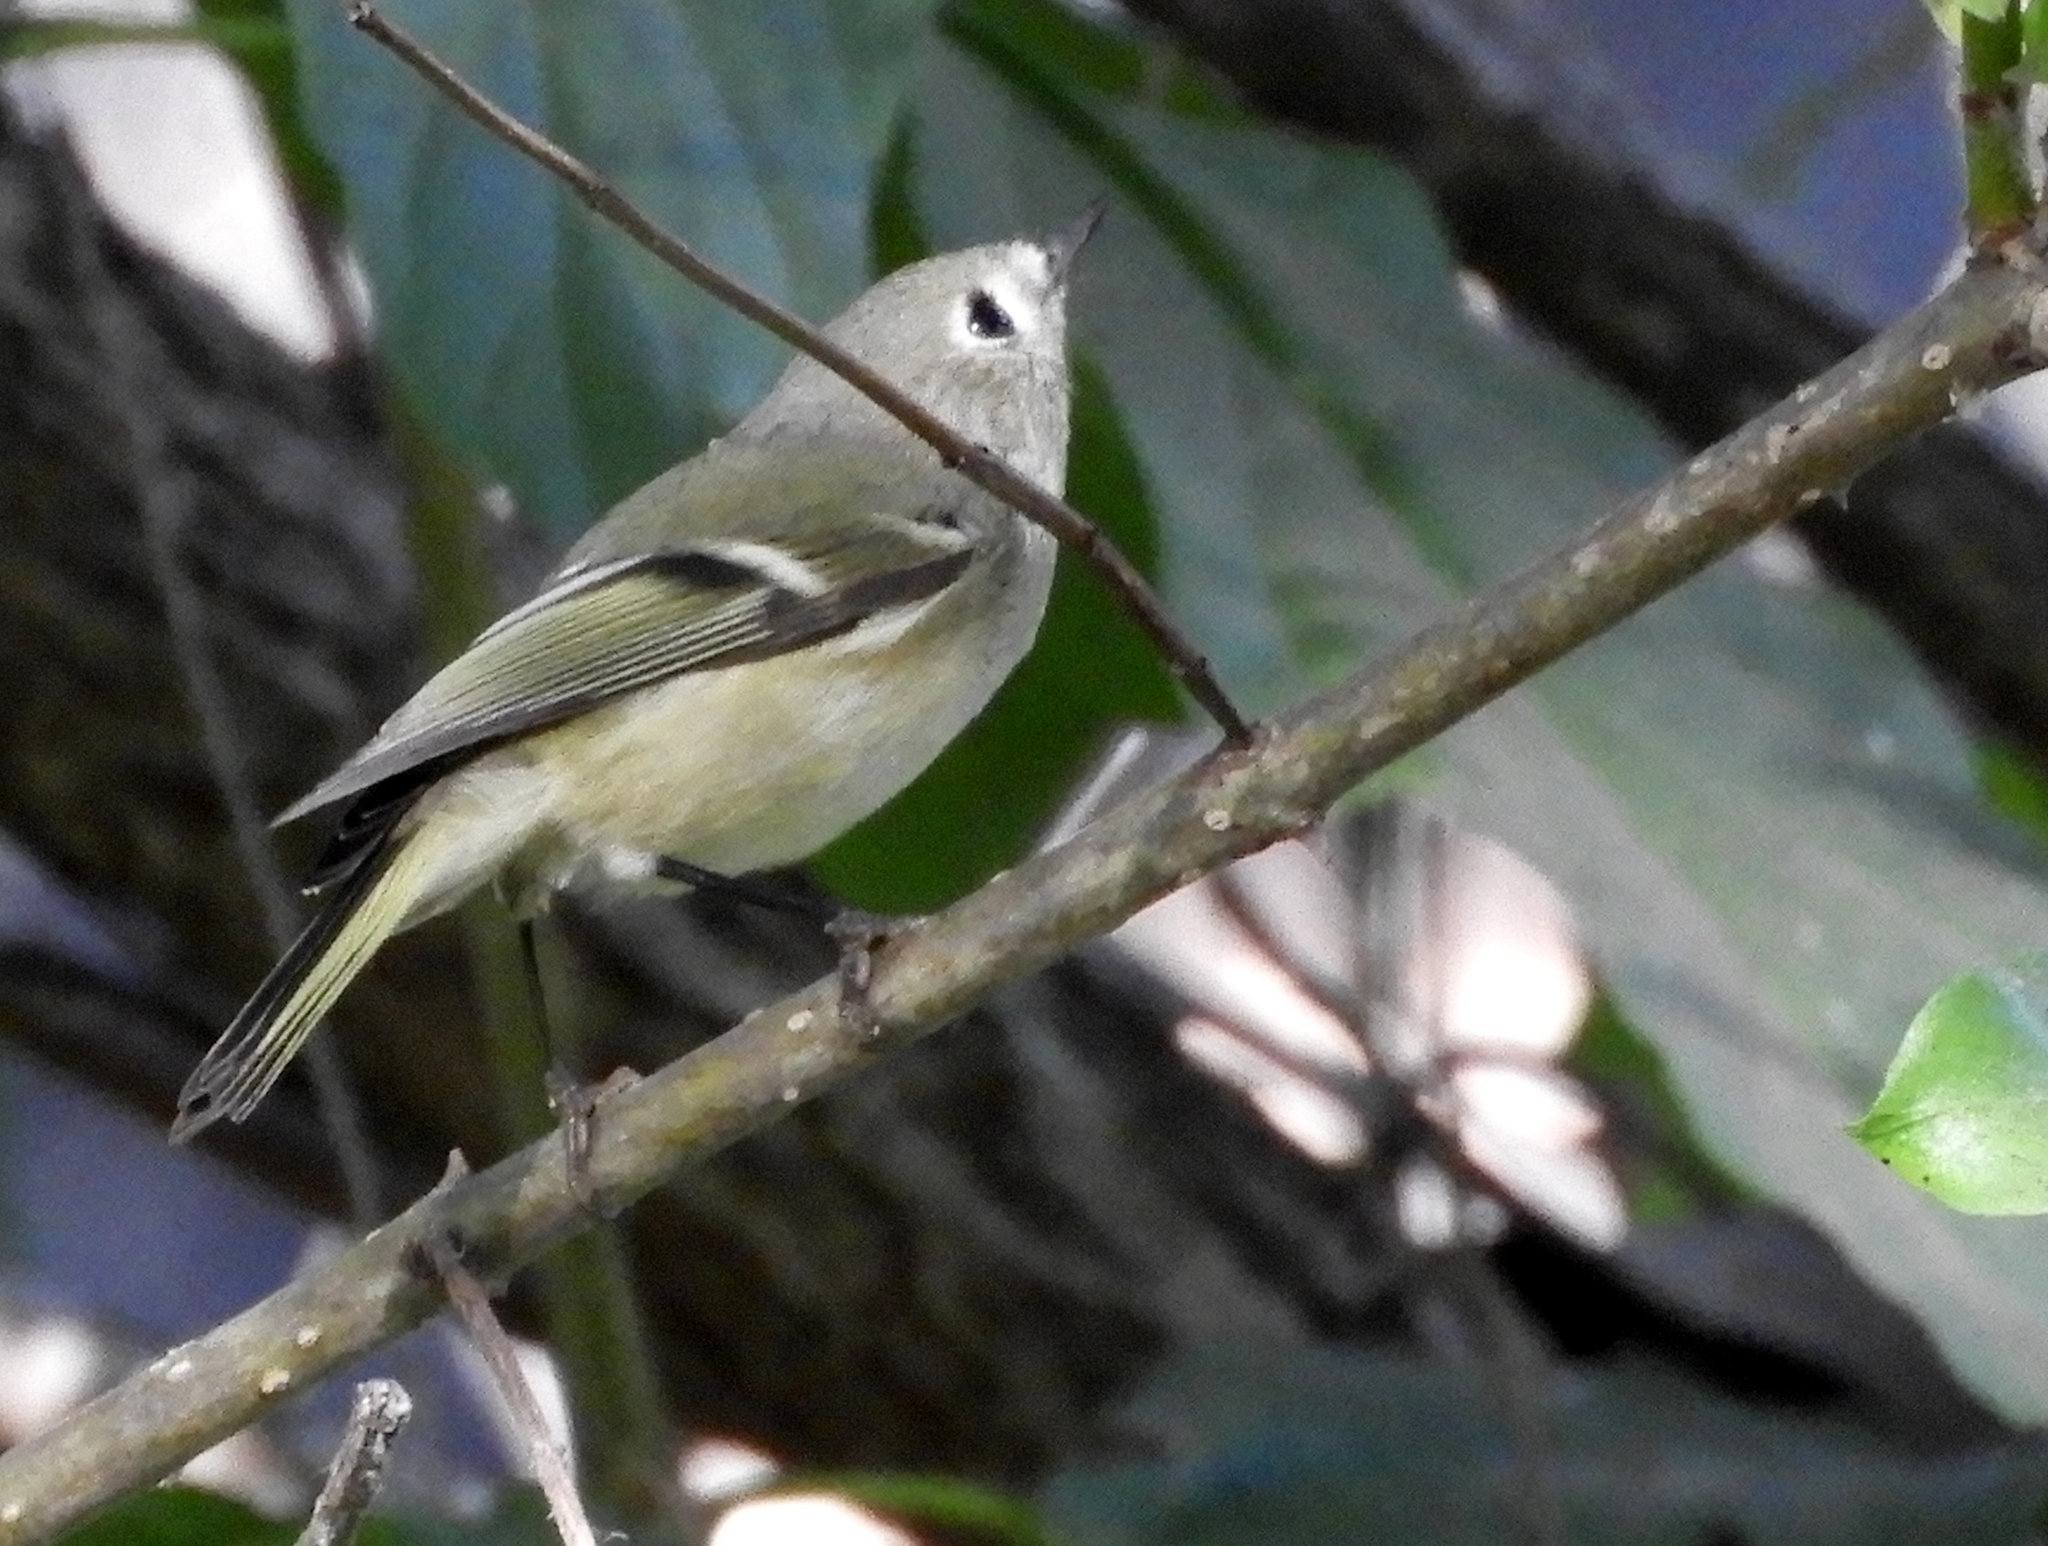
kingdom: Animalia
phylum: Chordata
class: Aves
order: Passeriformes
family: Regulidae
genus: Regulus
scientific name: Regulus calendula
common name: Ruby-crowned kinglet
